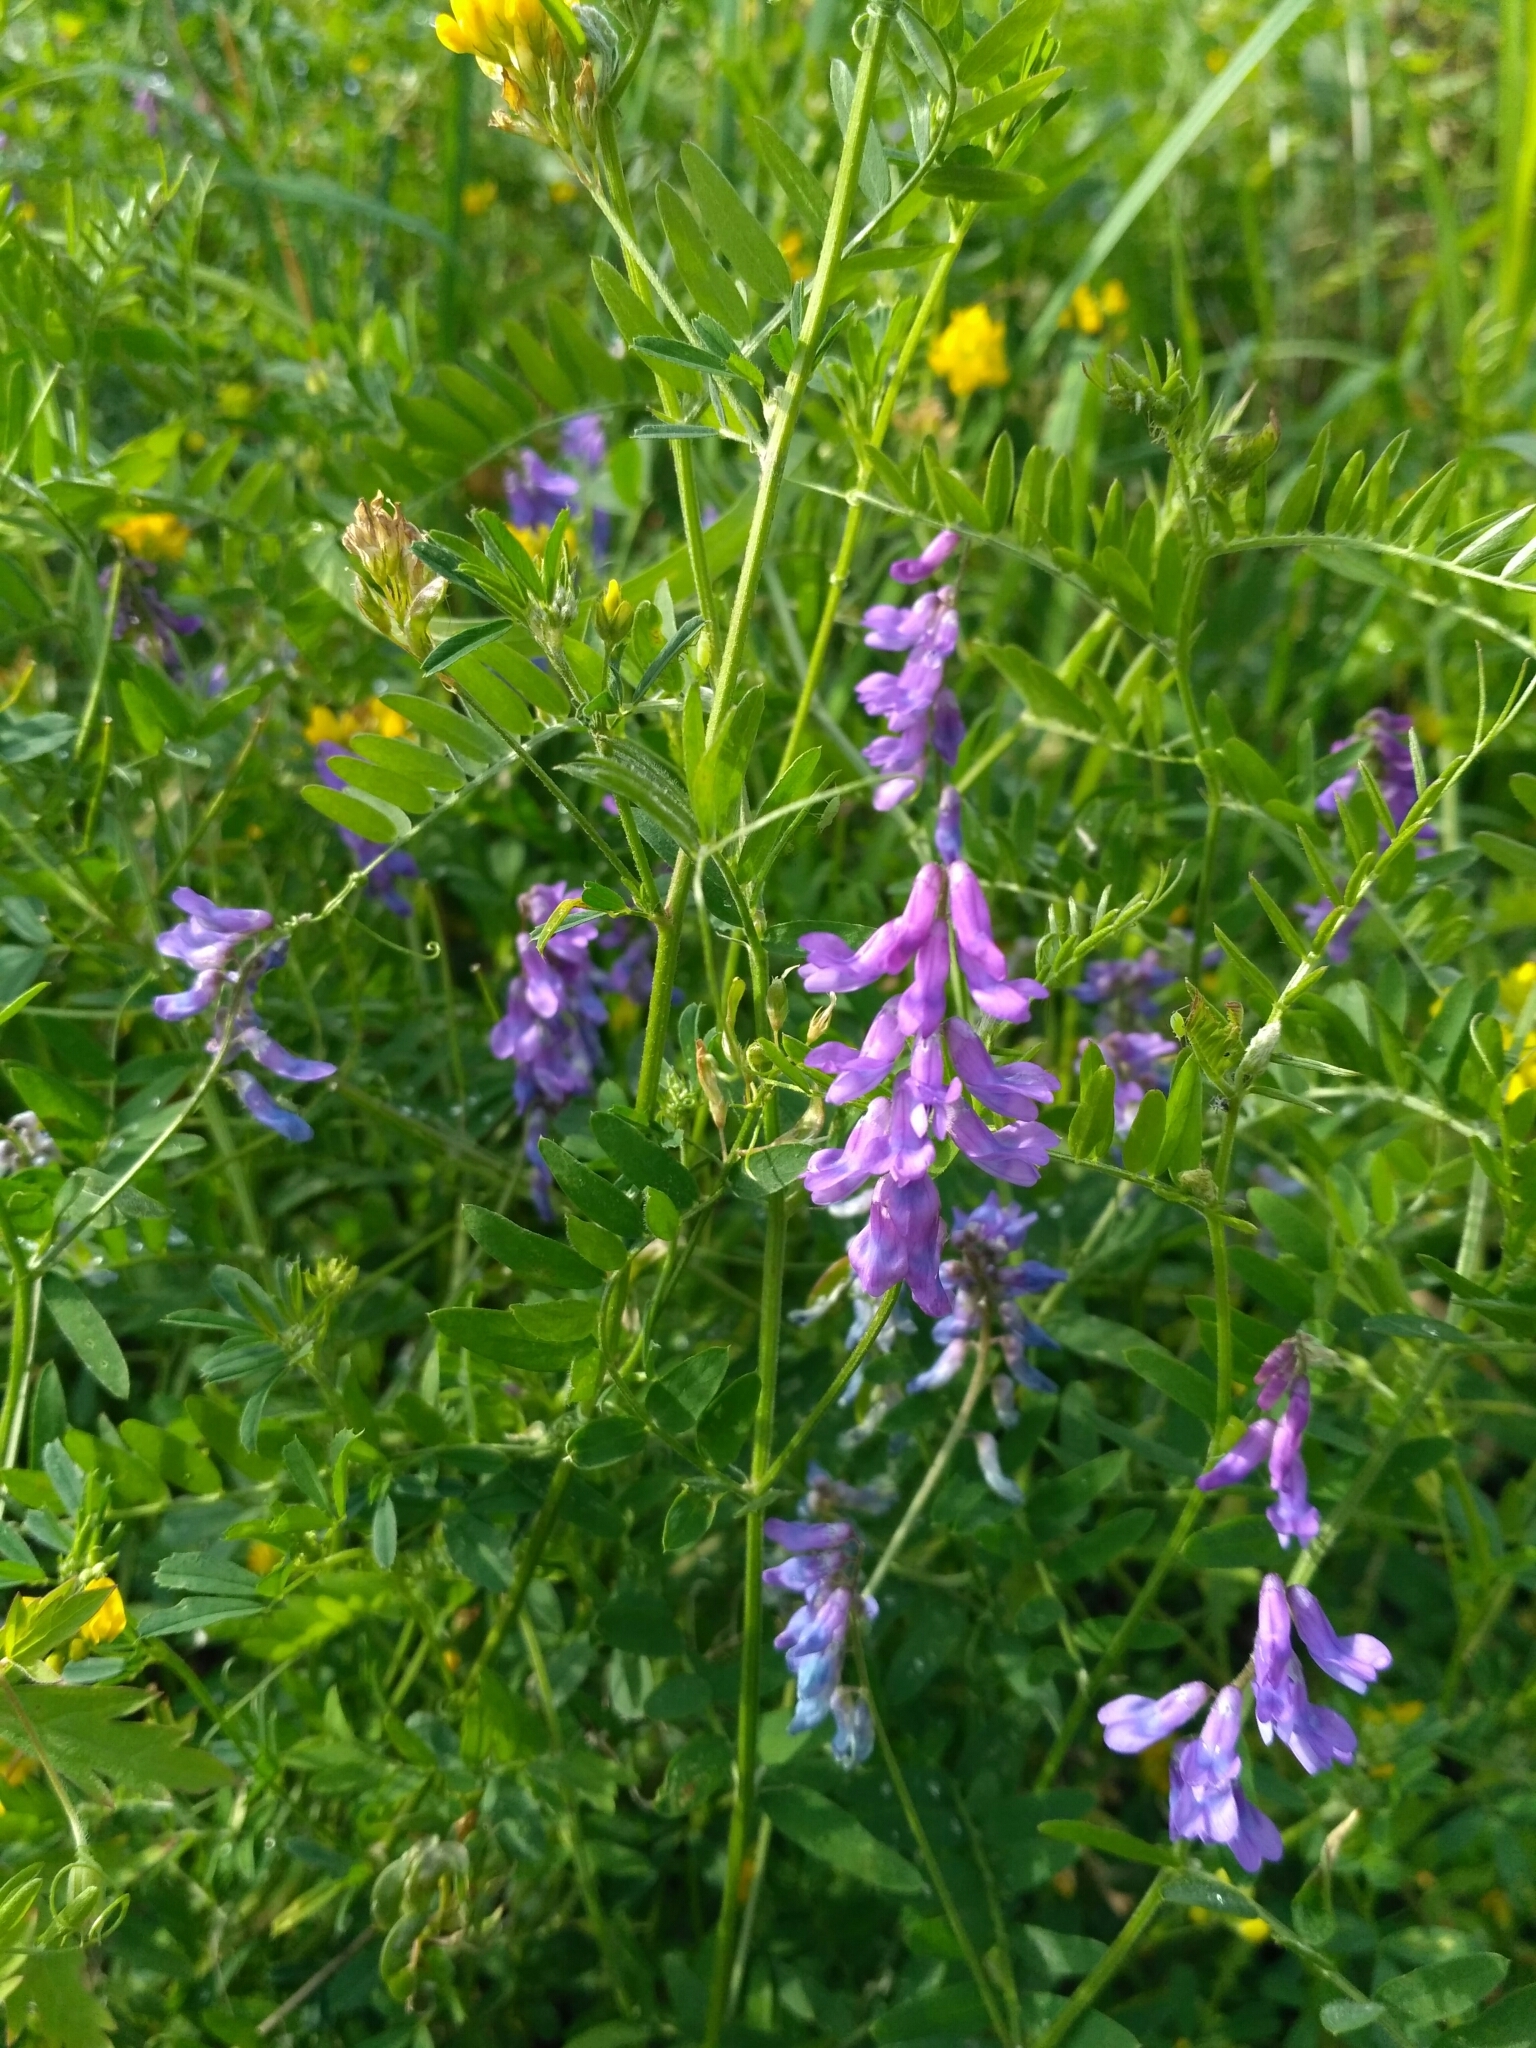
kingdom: Plantae
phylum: Tracheophyta
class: Magnoliopsida
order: Fabales
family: Fabaceae
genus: Vicia
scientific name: Vicia cracca
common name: Bird vetch
